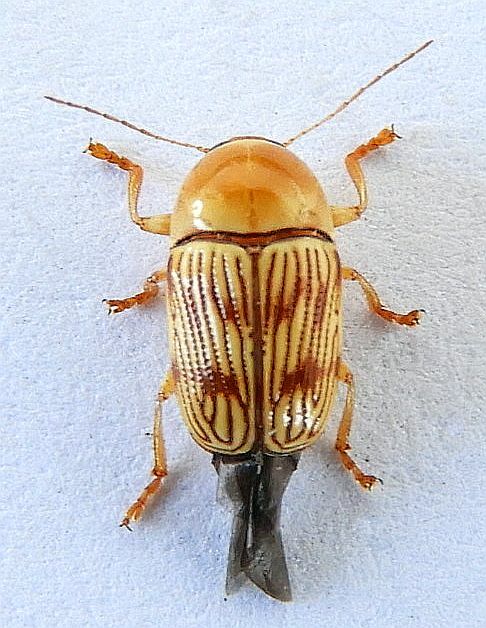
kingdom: Animalia
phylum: Arthropoda
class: Insecta
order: Coleoptera
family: Chrysomelidae
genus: Cryptocephalus
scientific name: Cryptocephalus quercus
